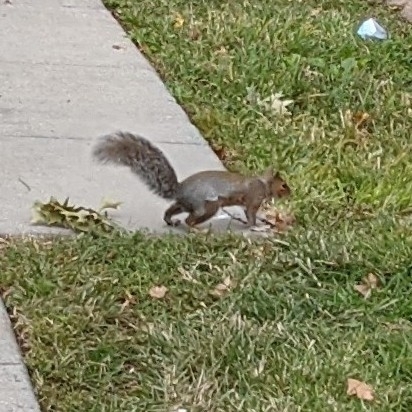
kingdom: Animalia
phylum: Chordata
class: Mammalia
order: Rodentia
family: Sciuridae
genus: Sciurus
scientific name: Sciurus carolinensis
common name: Eastern gray squirrel
